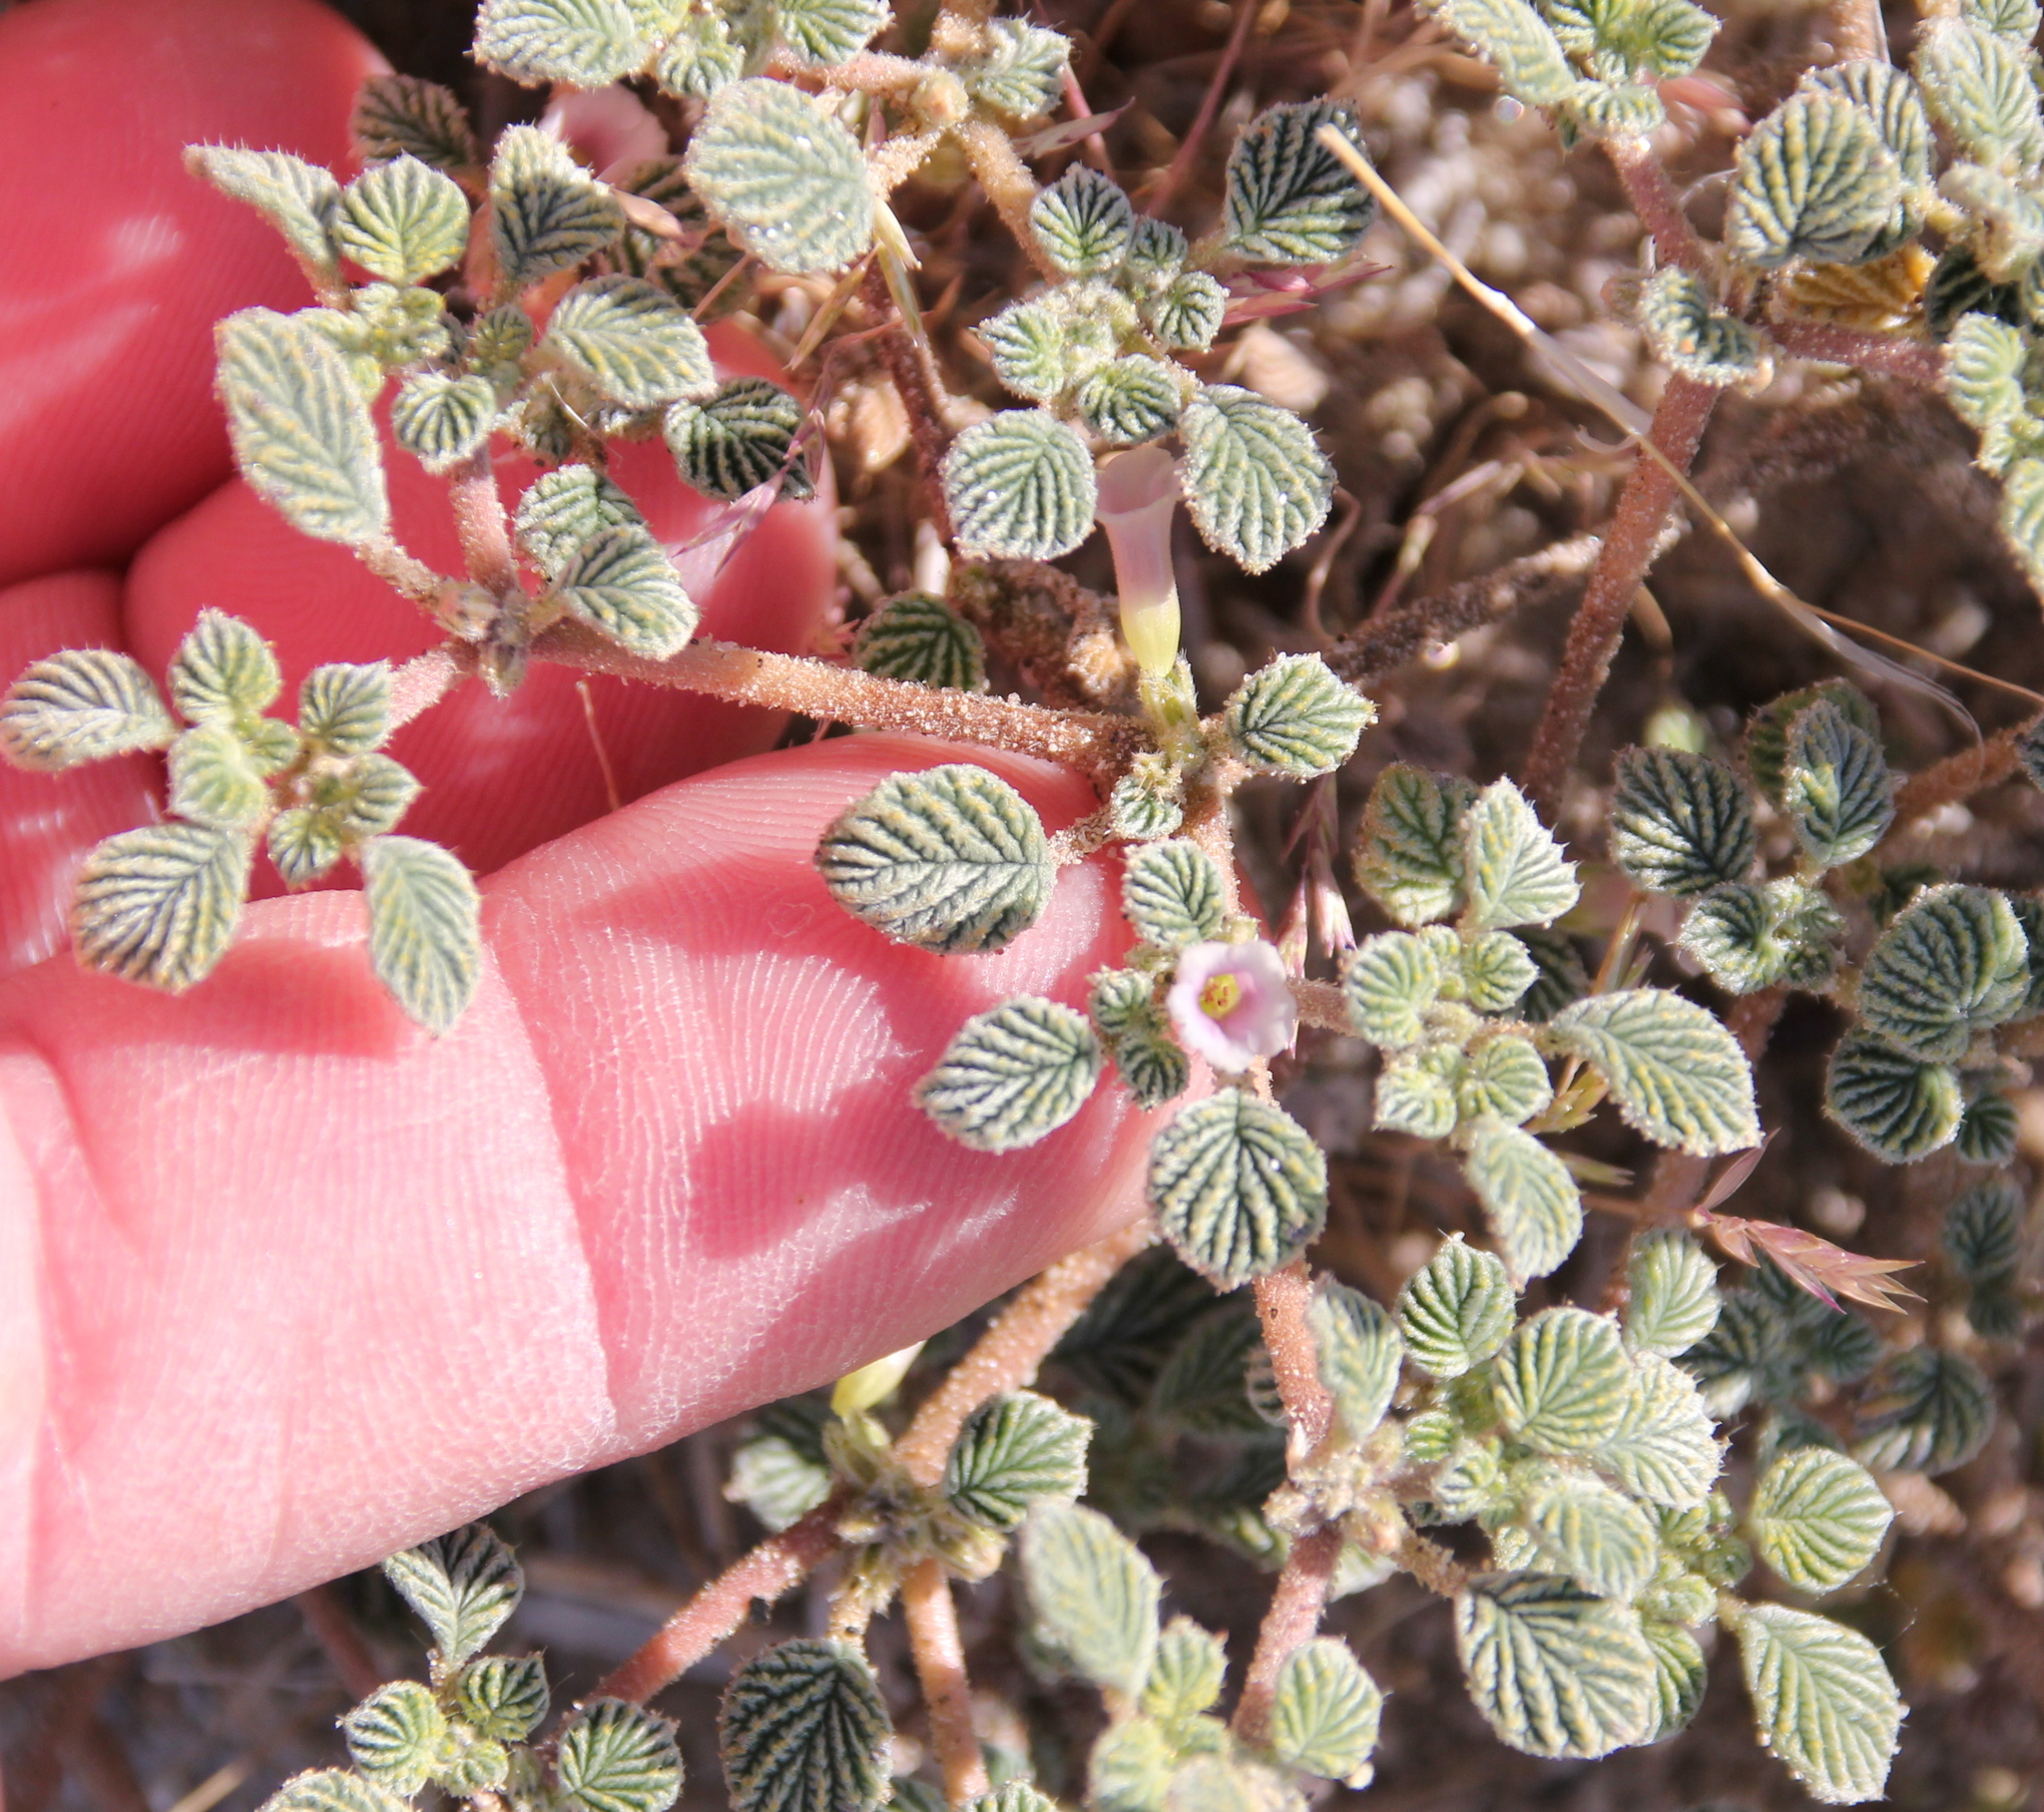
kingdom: Plantae
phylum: Tracheophyta
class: Magnoliopsida
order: Boraginales
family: Ehretiaceae
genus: Tiquilia
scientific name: Tiquilia plicata
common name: Fan-leaf tiquilia
